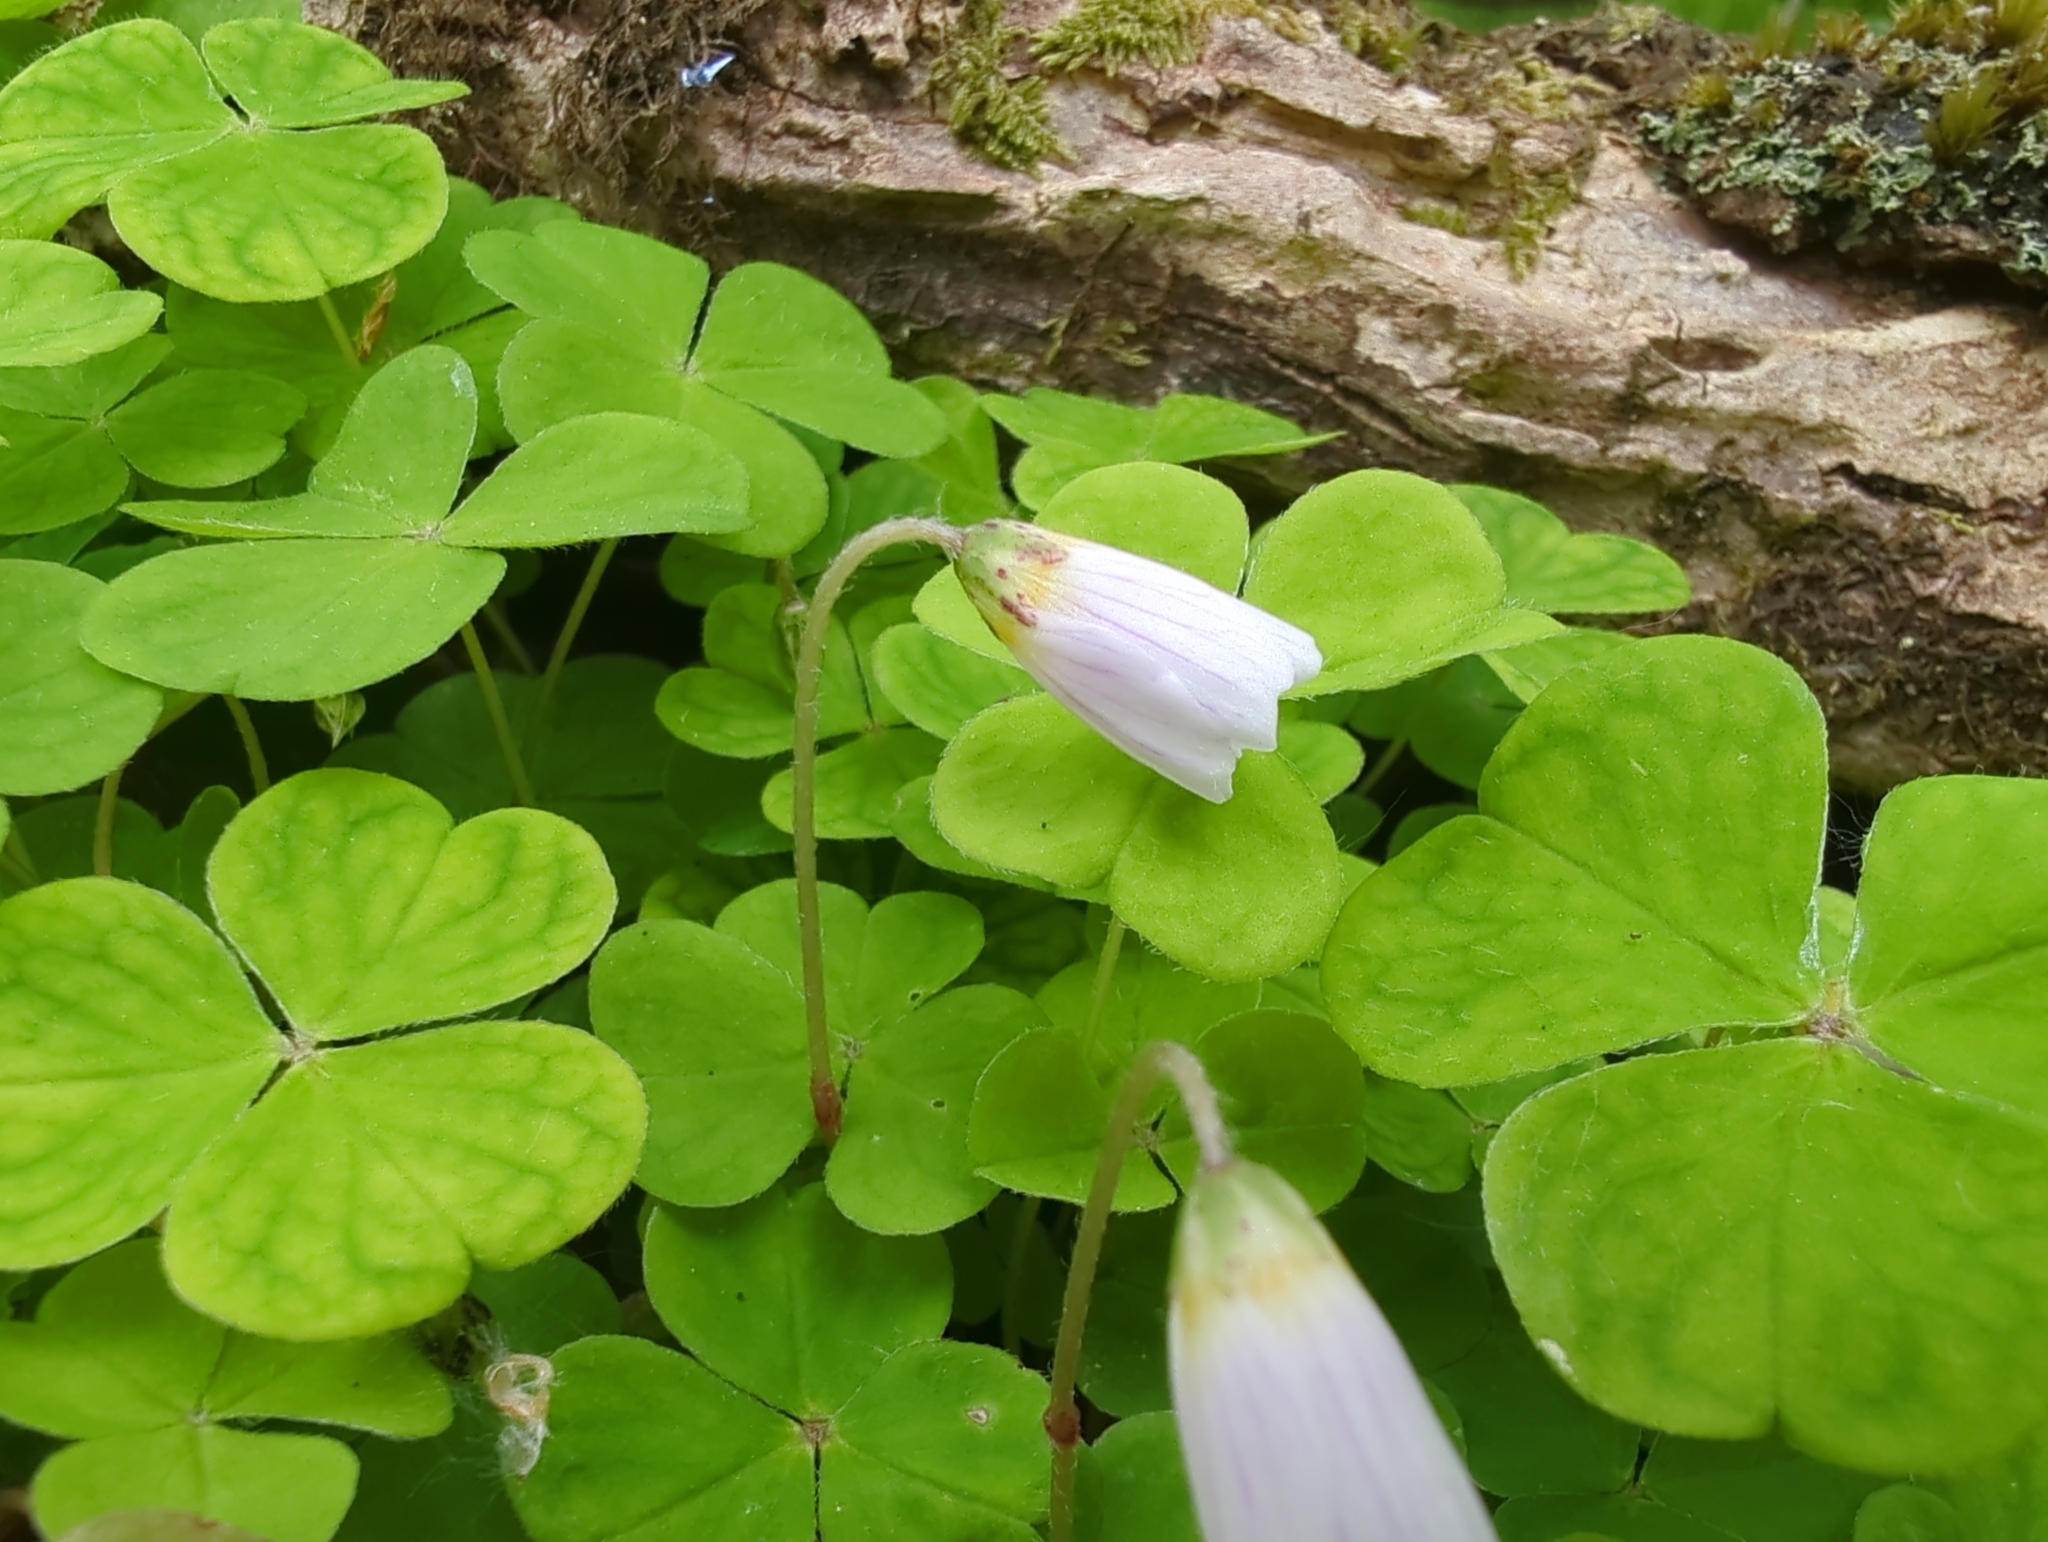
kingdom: Plantae
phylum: Tracheophyta
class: Magnoliopsida
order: Oxalidales
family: Oxalidaceae
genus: Oxalis
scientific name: Oxalis acetosella
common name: Wood-sorrel
